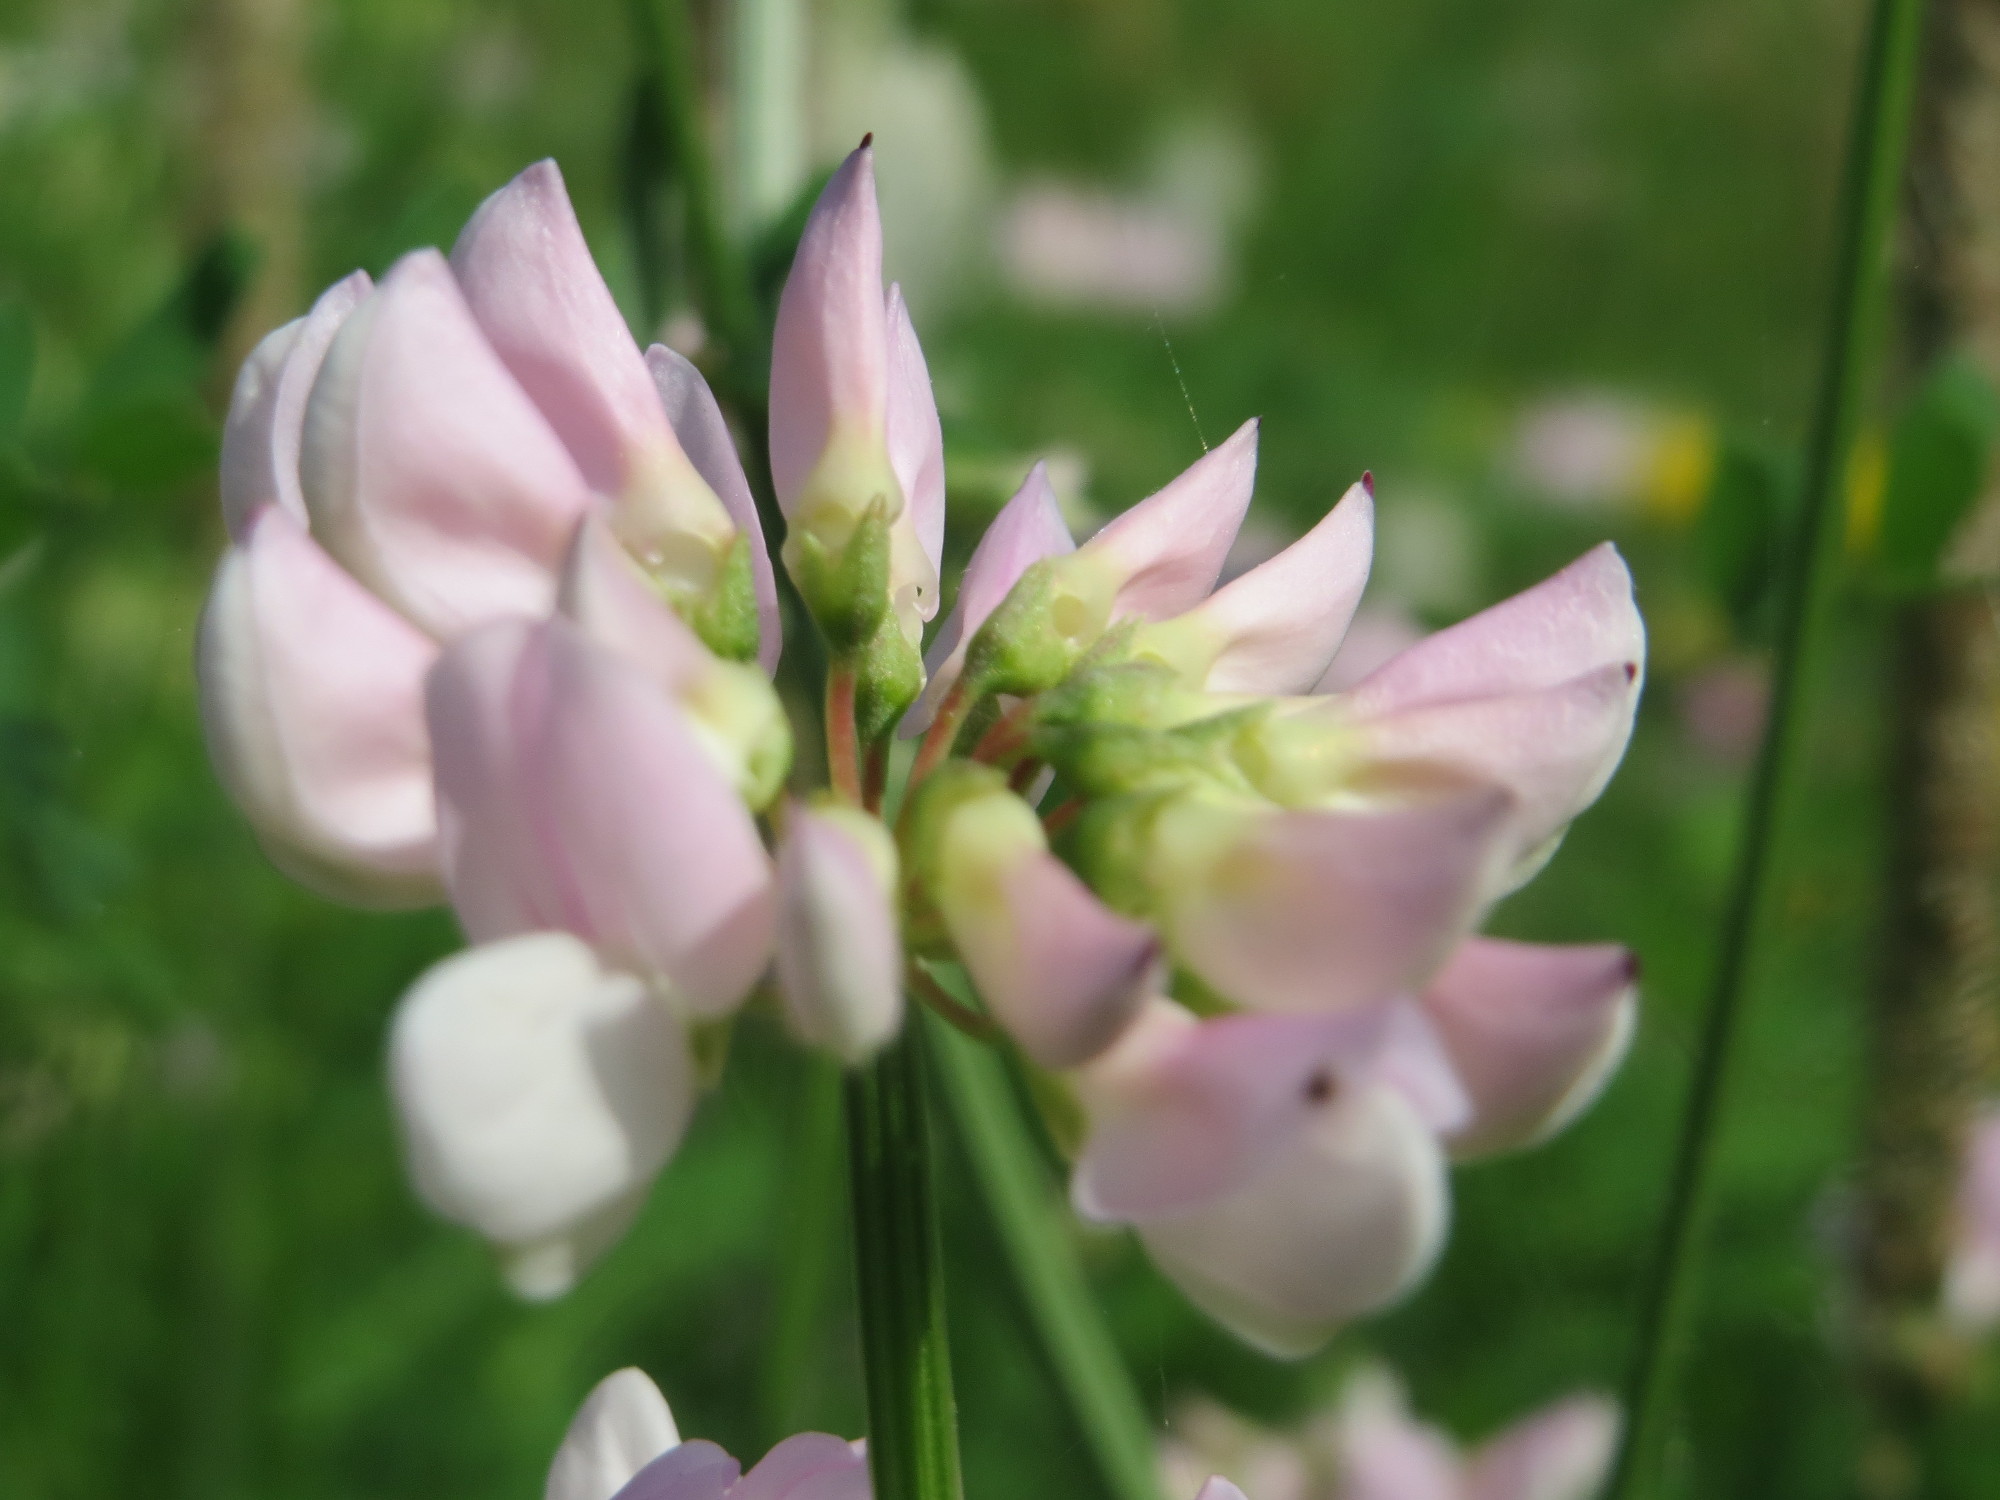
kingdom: Plantae
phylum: Tracheophyta
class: Magnoliopsida
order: Fabales
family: Fabaceae
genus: Coronilla
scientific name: Coronilla varia
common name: Crownvetch
